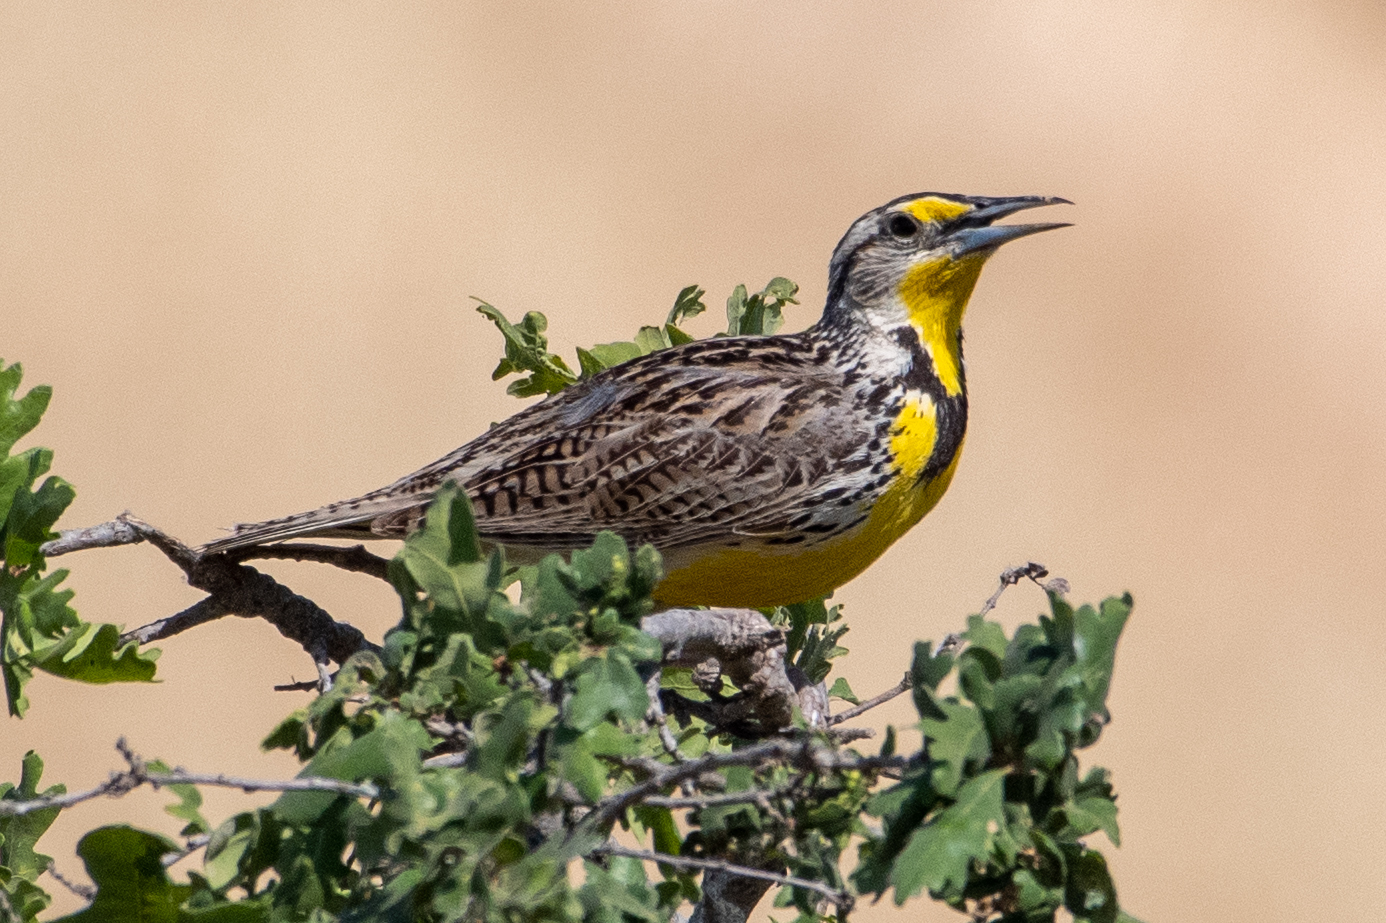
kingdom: Animalia
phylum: Chordata
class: Aves
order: Passeriformes
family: Icteridae
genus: Sturnella
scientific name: Sturnella neglecta
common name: Western meadowlark
